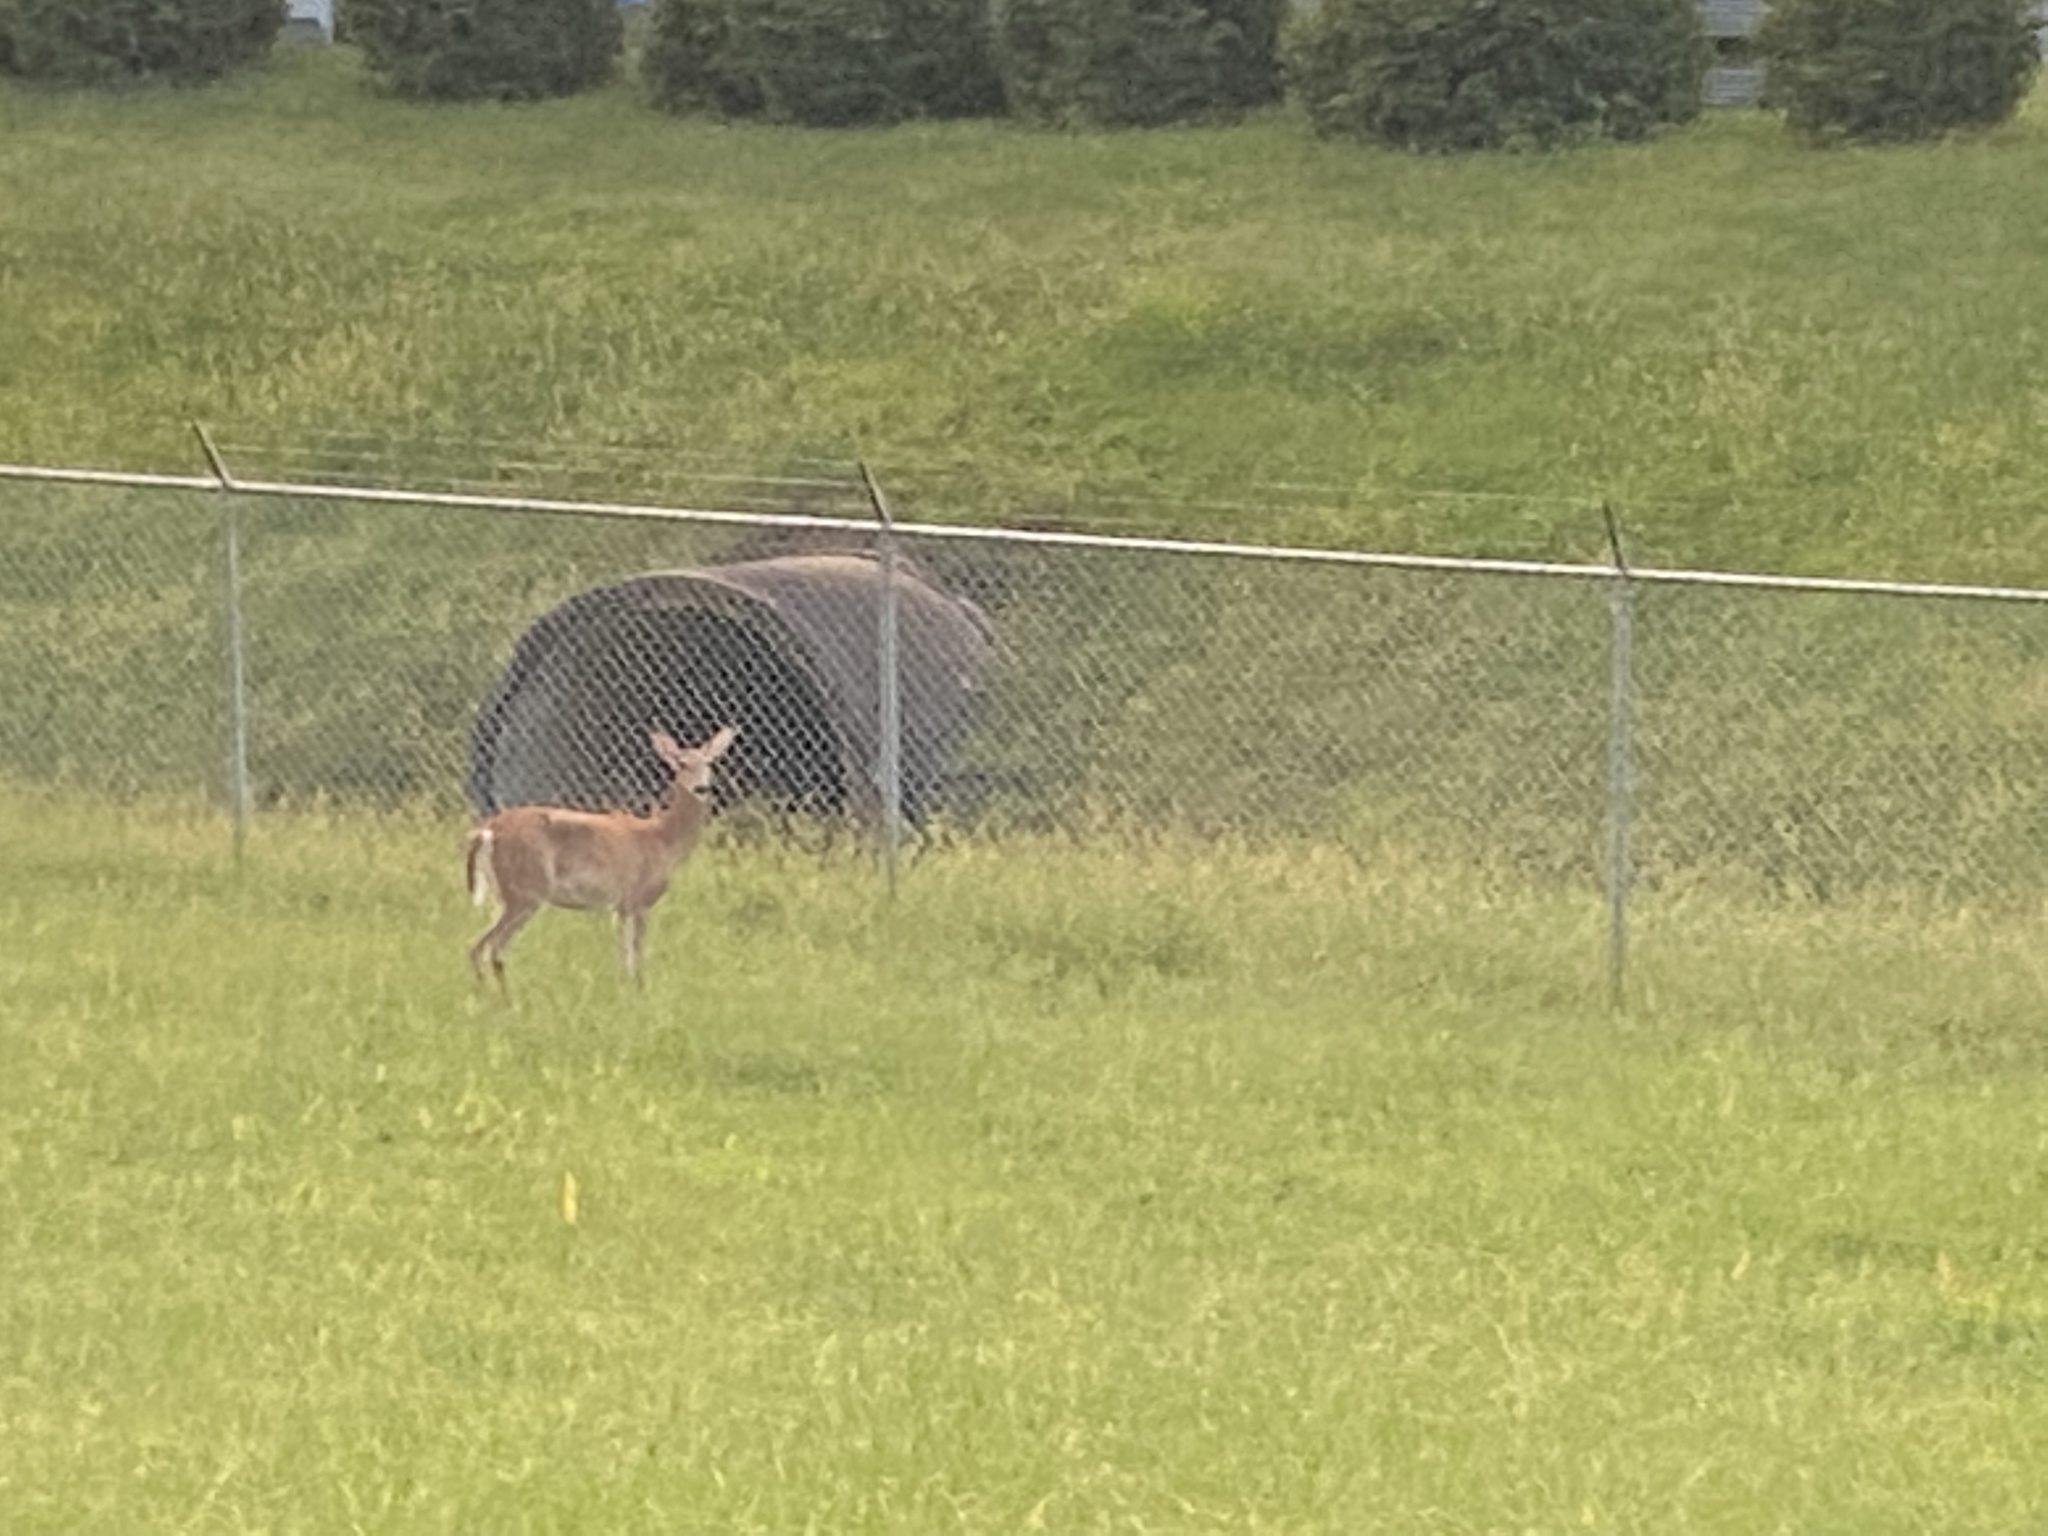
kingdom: Animalia
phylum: Chordata
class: Mammalia
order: Artiodactyla
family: Cervidae
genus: Odocoileus
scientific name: Odocoileus virginianus
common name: White-tailed deer
